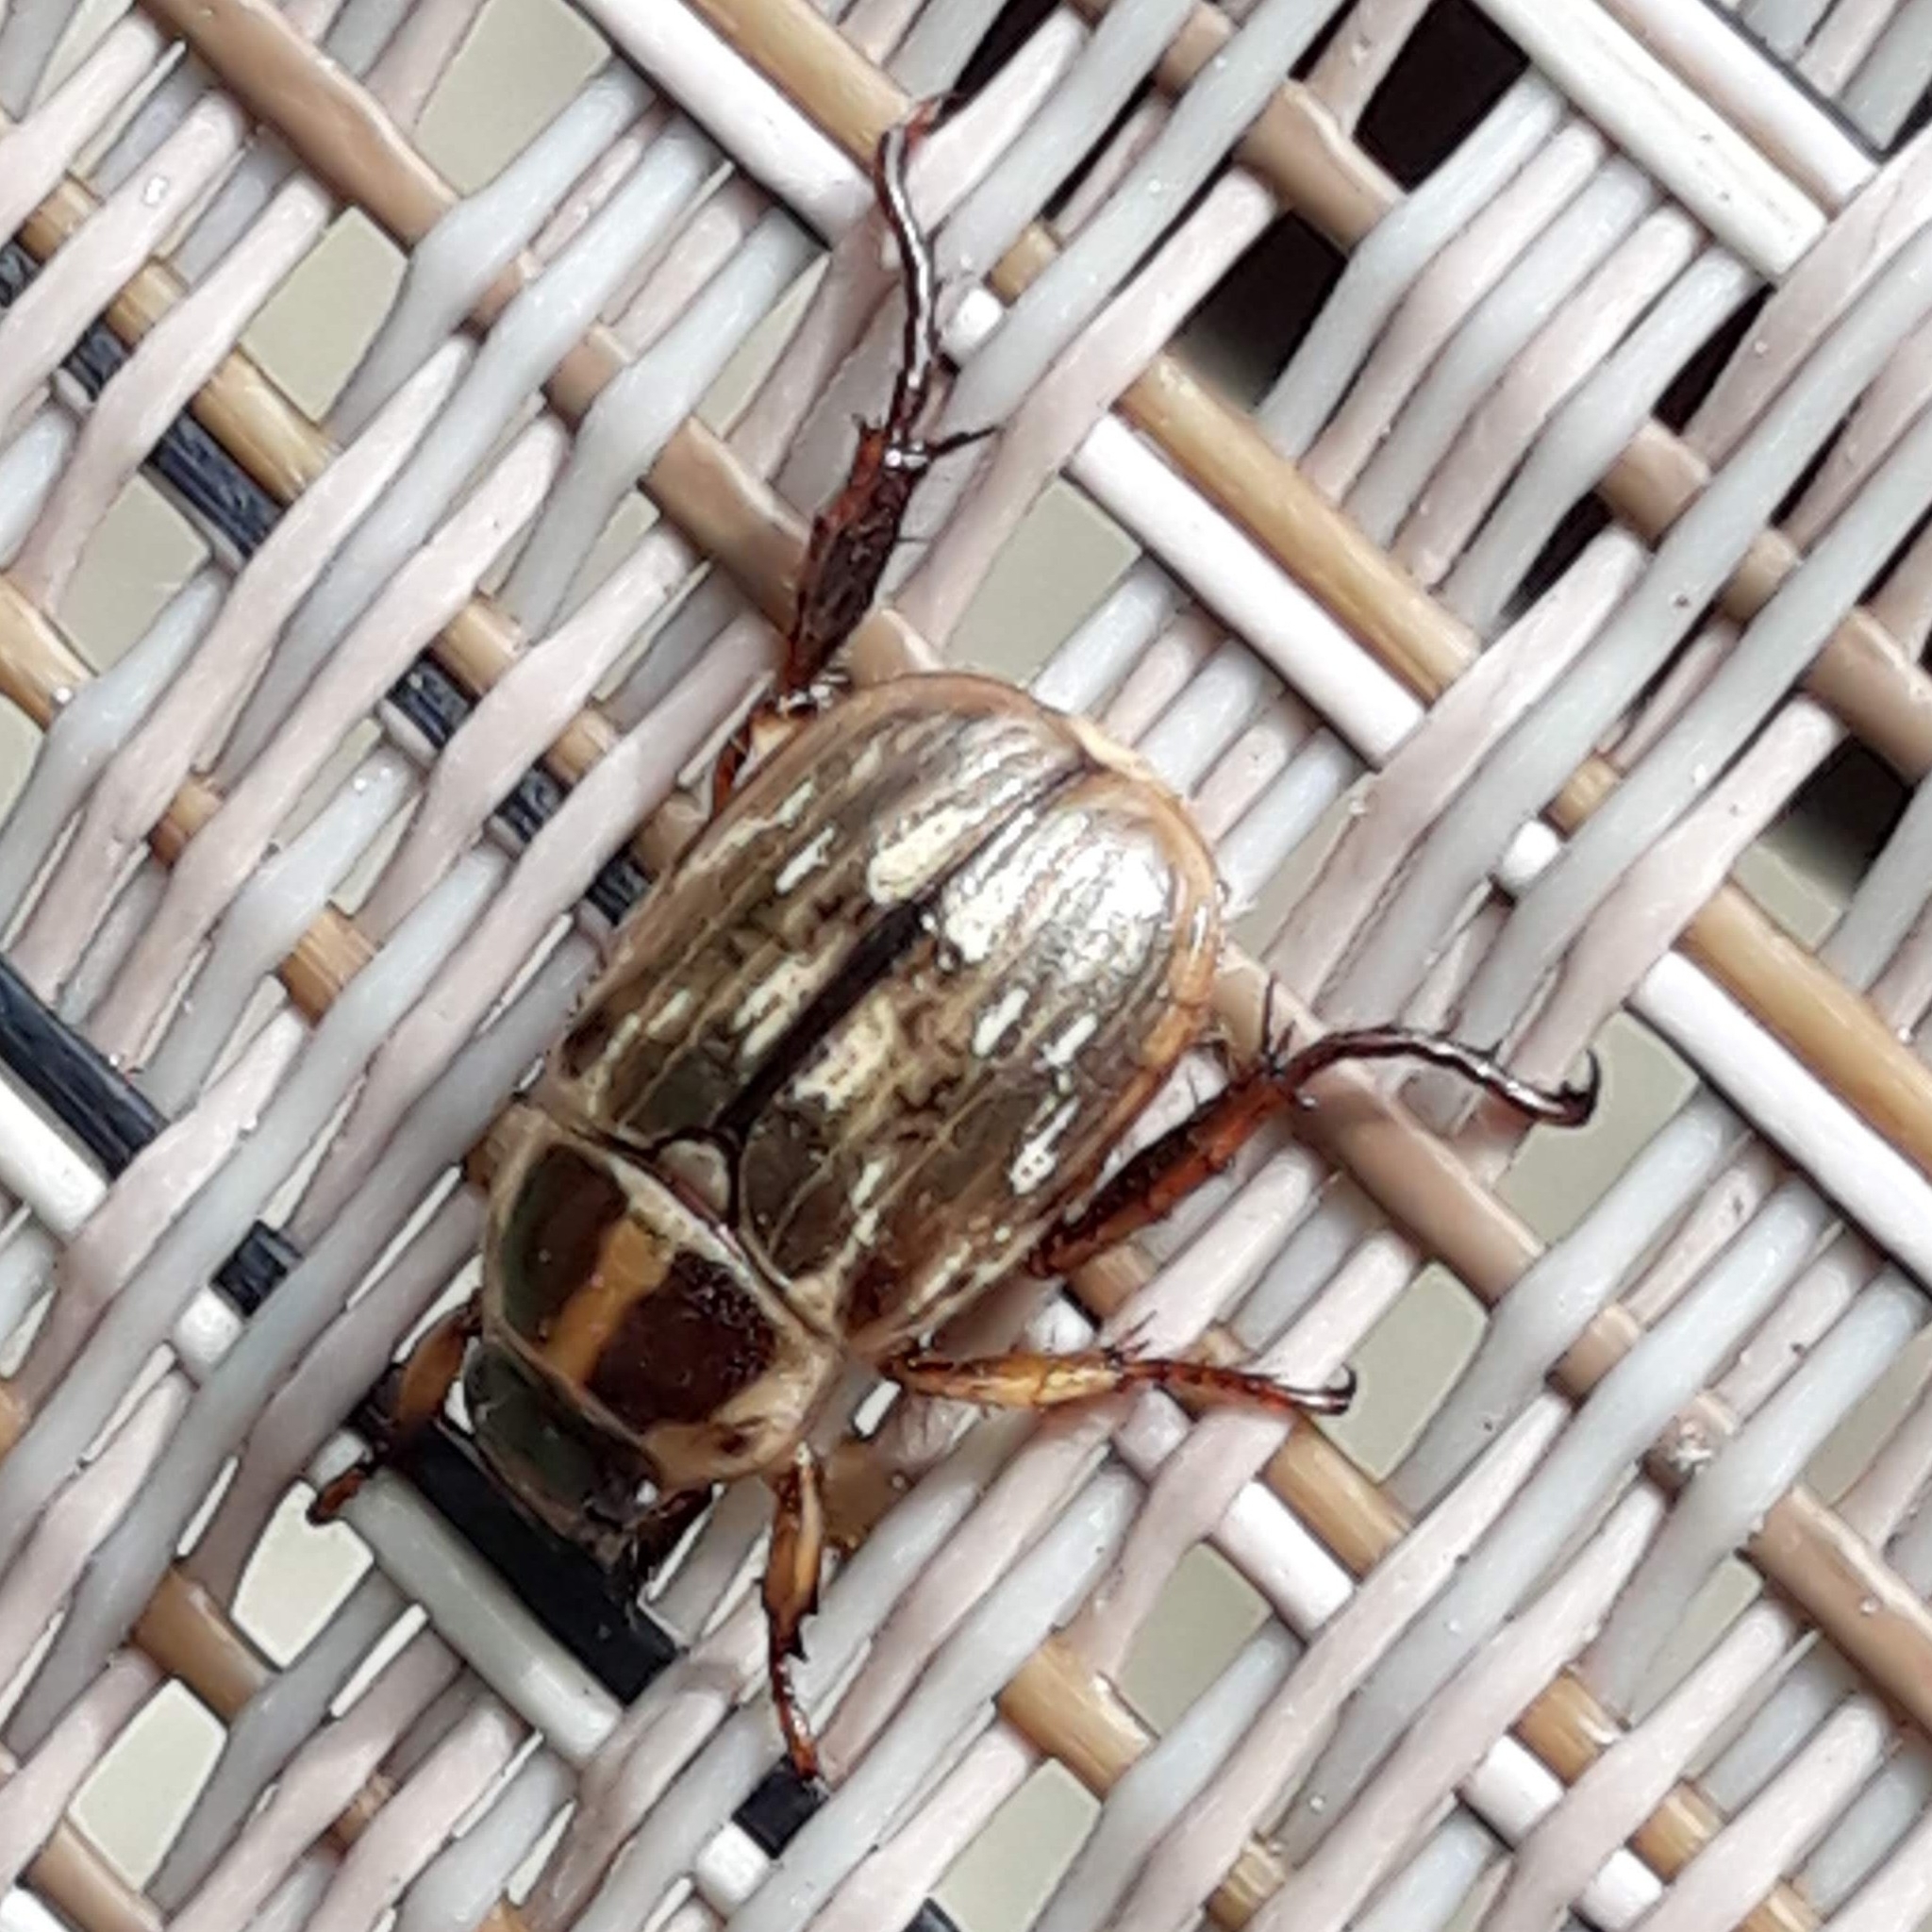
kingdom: Animalia
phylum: Arthropoda
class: Insecta
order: Coleoptera
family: Scarabaeidae
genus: Exomala
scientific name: Exomala orientalis
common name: Oriental beetle
